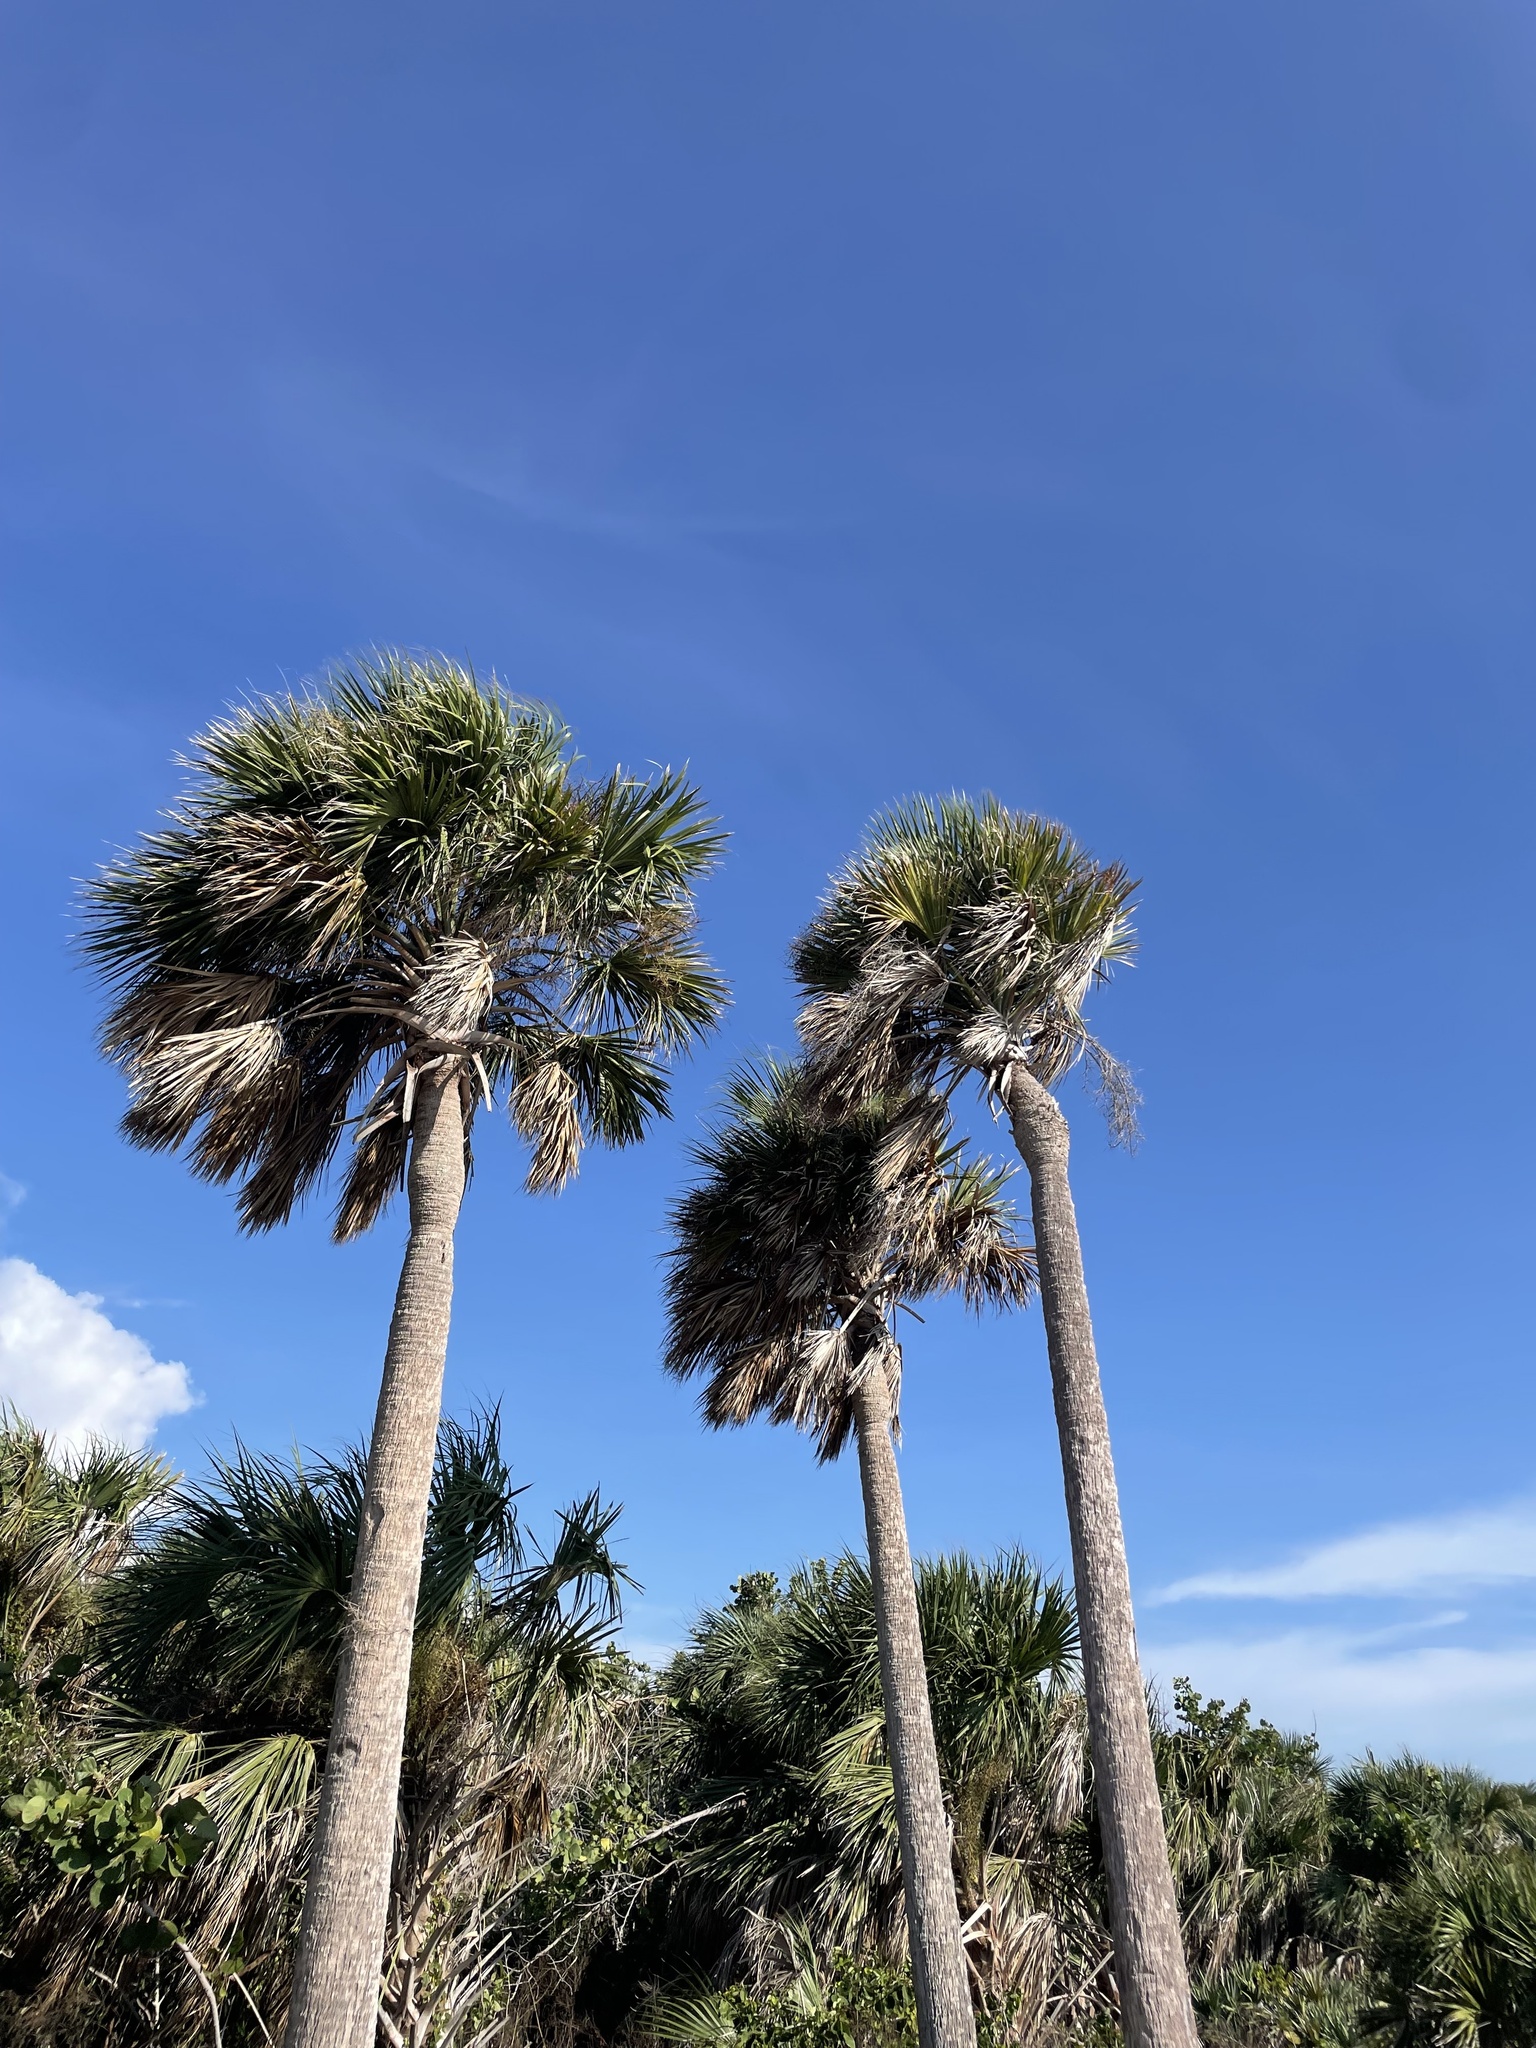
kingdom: Plantae
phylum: Tracheophyta
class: Liliopsida
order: Arecales
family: Arecaceae
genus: Sabal
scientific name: Sabal palmetto
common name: Blue palmetto
